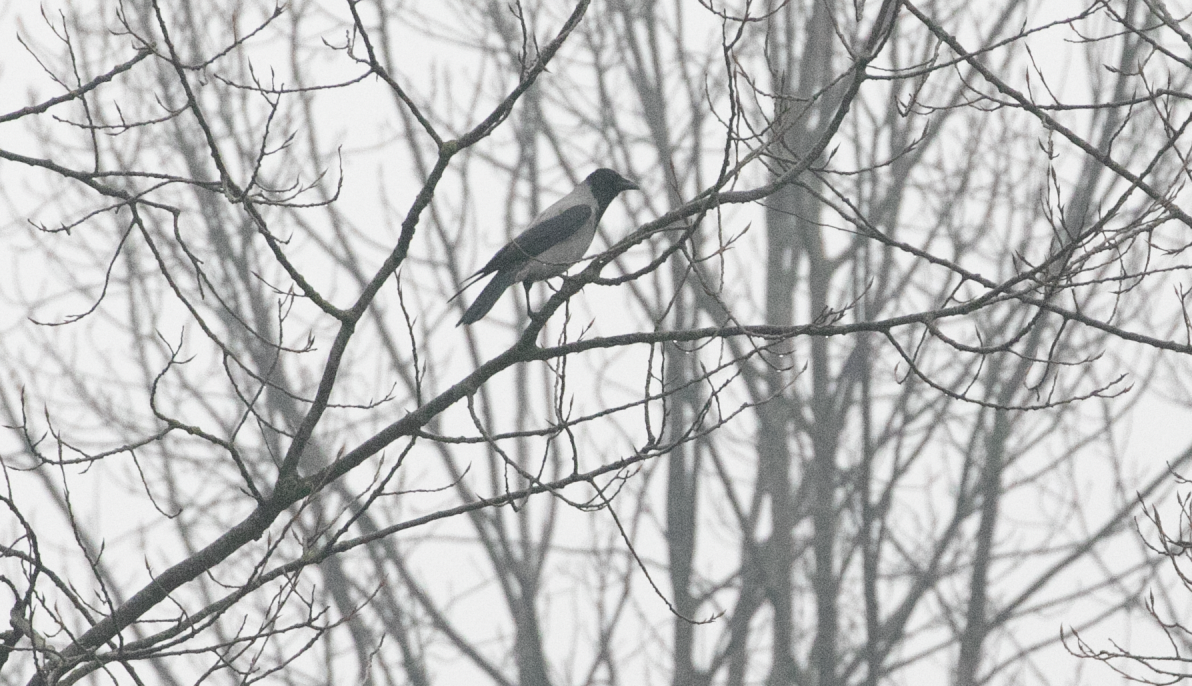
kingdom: Animalia
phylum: Chordata
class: Aves
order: Passeriformes
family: Corvidae
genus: Corvus
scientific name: Corvus cornix
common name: Hooded crow
